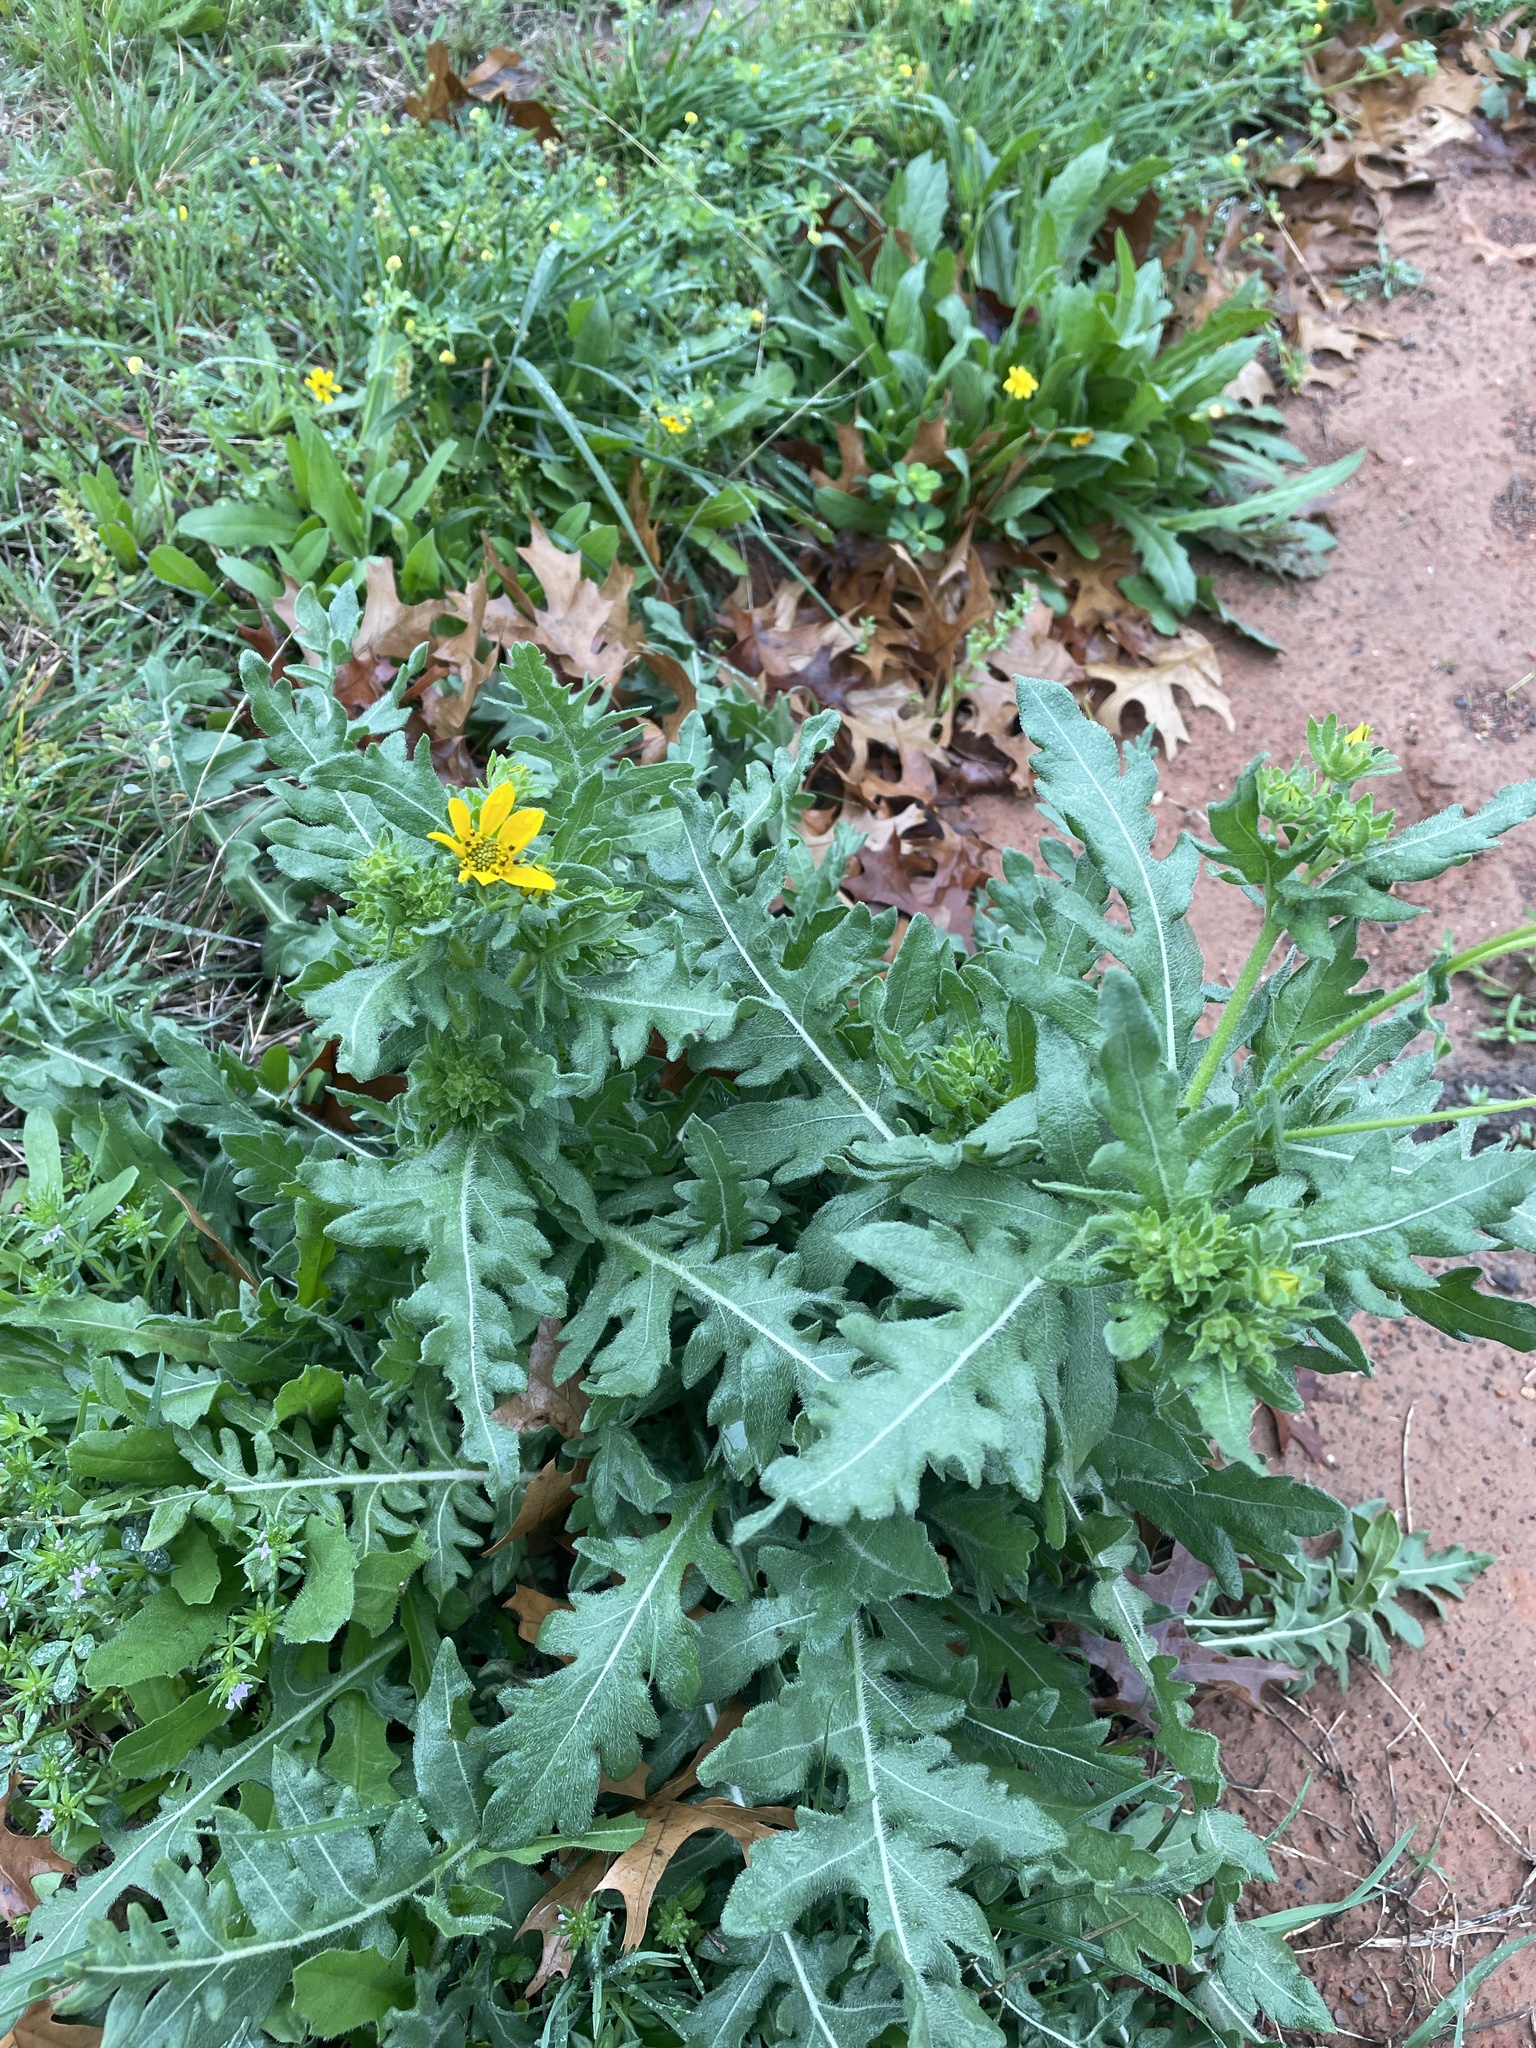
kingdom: Plantae
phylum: Tracheophyta
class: Magnoliopsida
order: Asterales
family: Asteraceae
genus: Engelmannia
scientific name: Engelmannia peristenia
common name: Engelmann's daisy
